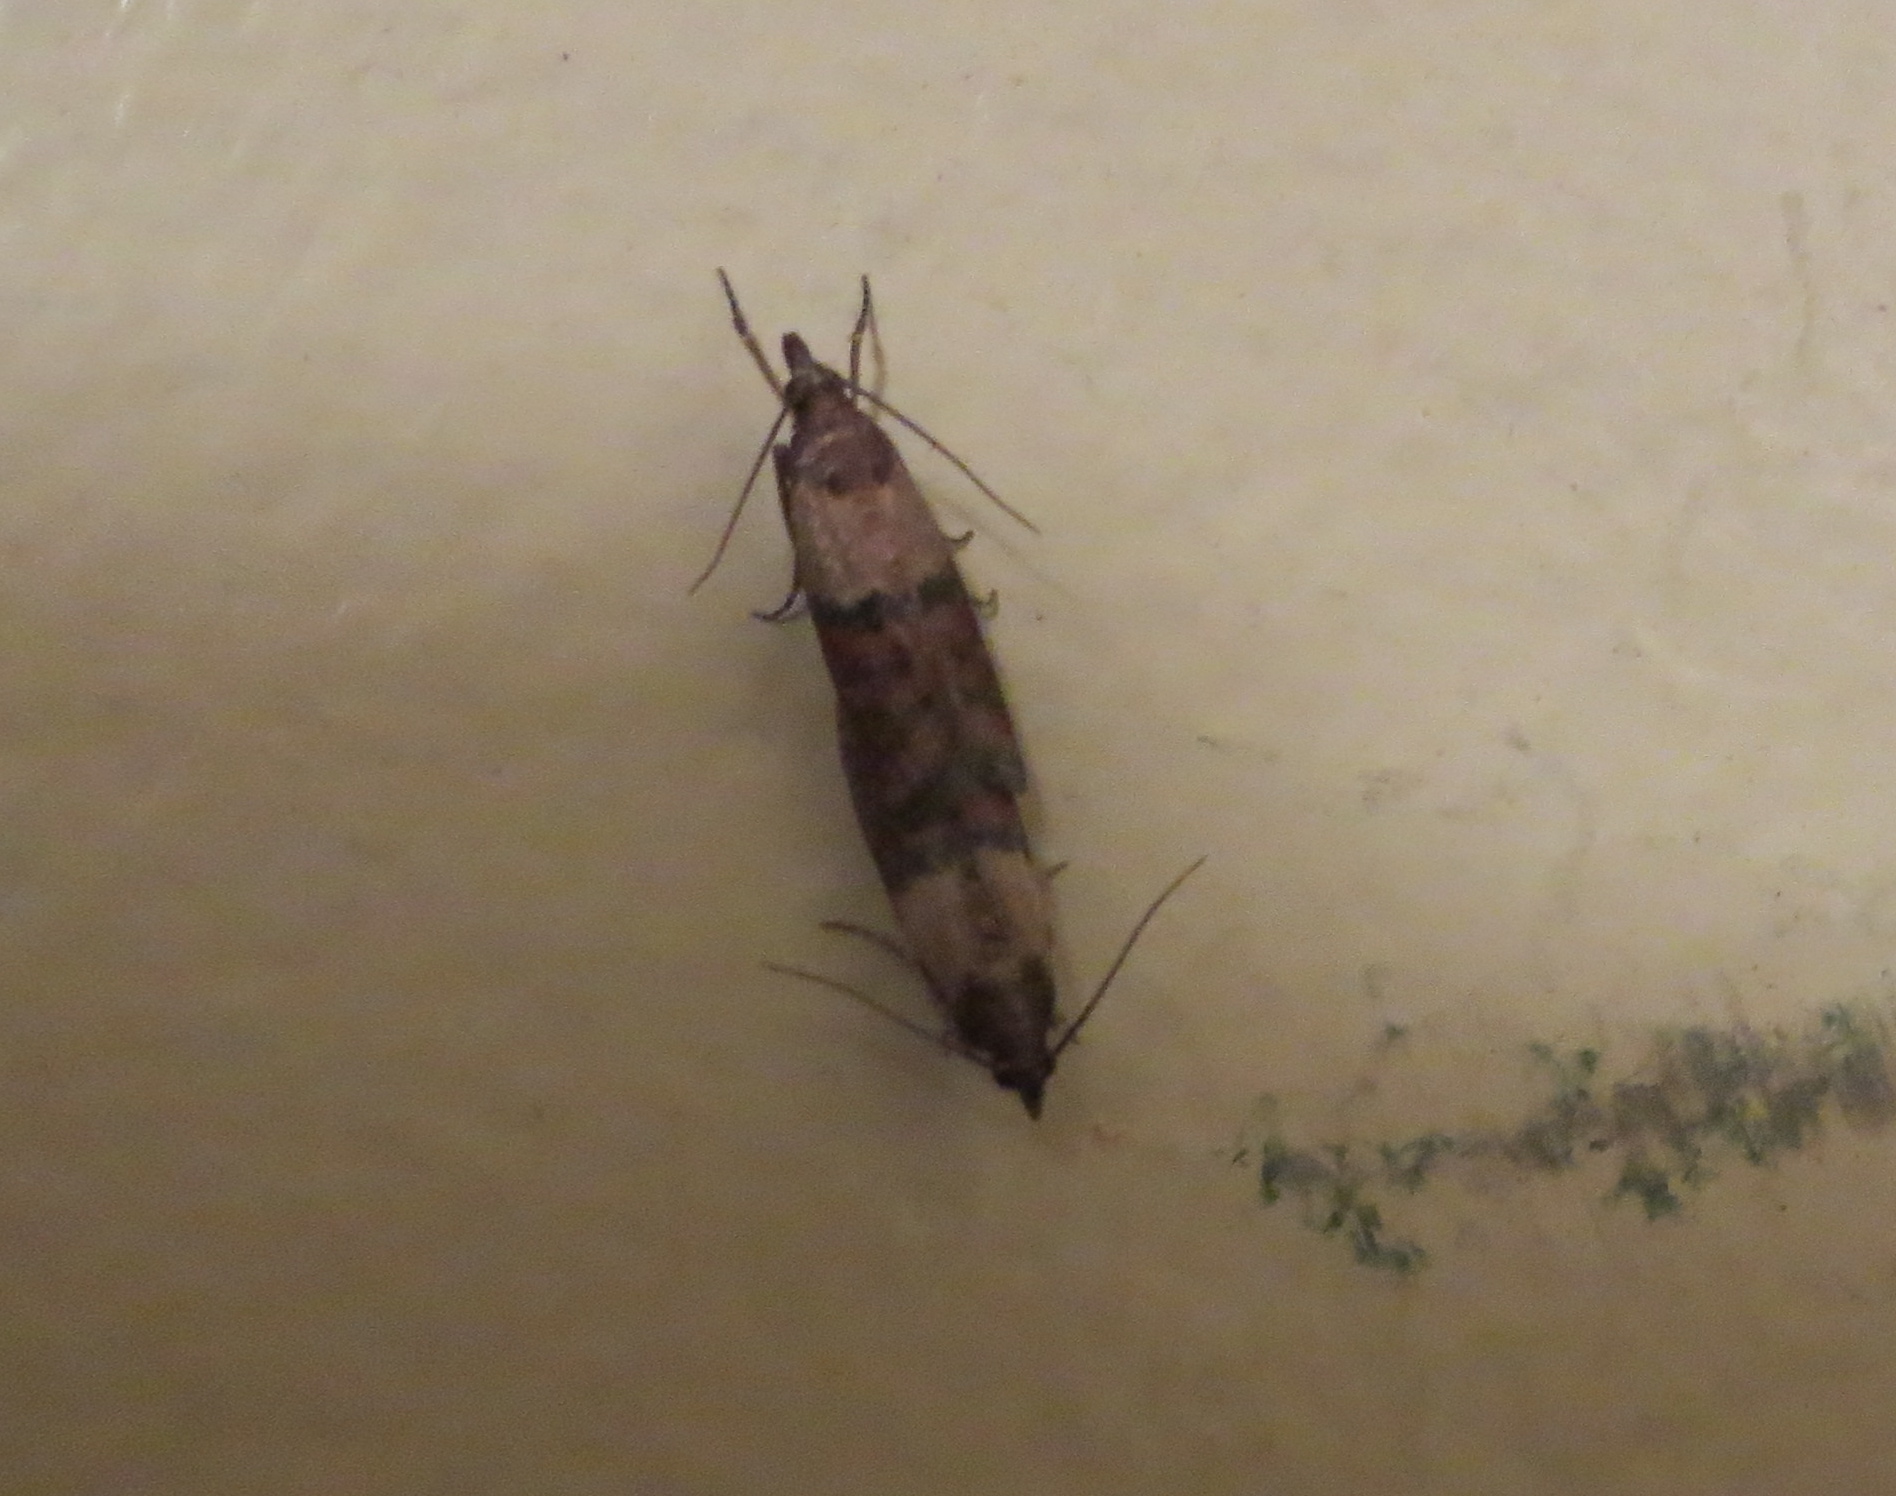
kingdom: Animalia
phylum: Arthropoda
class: Insecta
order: Lepidoptera
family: Pyralidae
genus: Plodia
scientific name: Plodia interpunctella
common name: Indian meal moth
